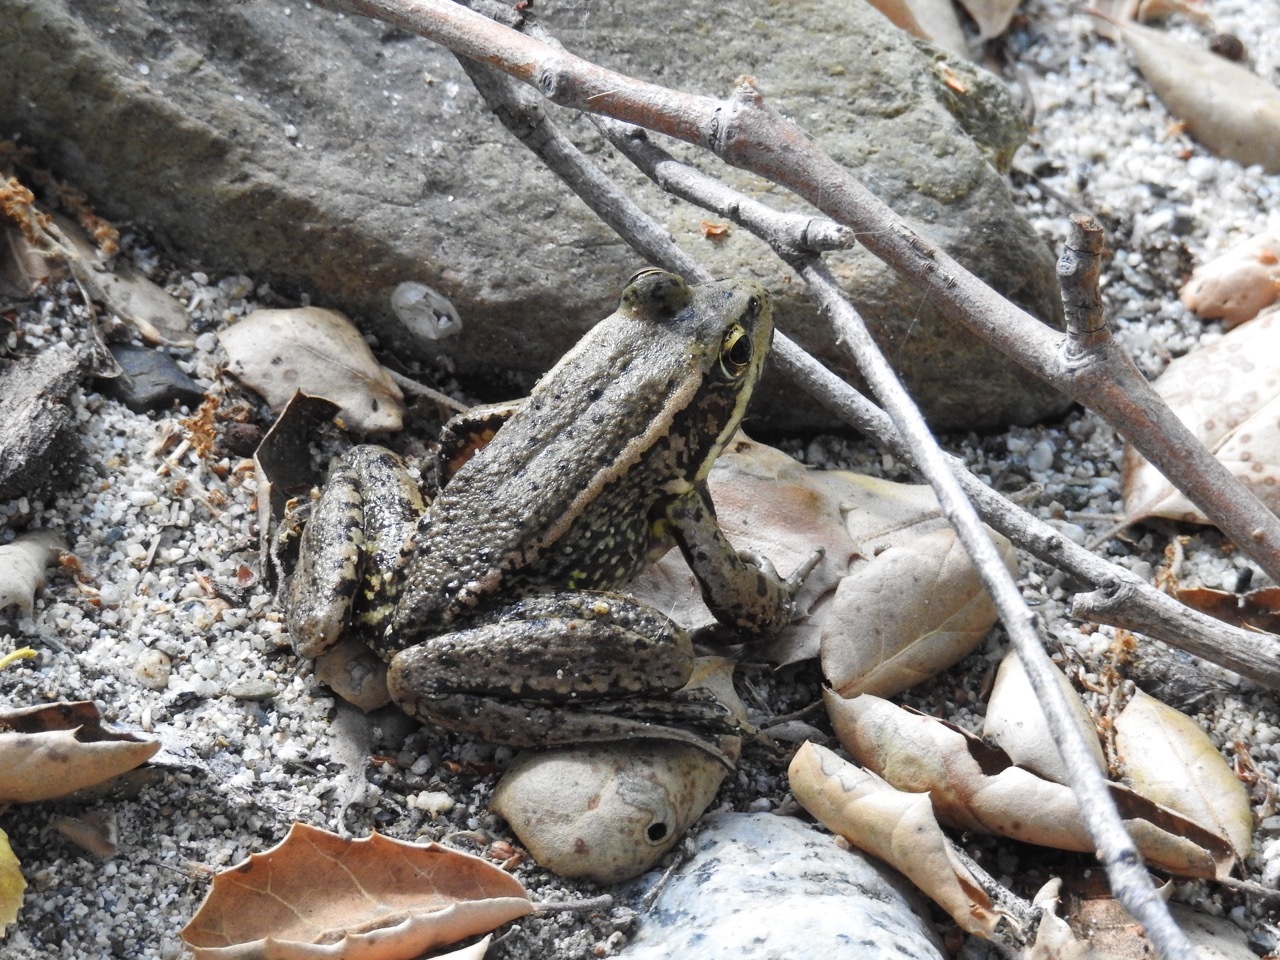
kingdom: Animalia
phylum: Chordata
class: Amphibia
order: Anura
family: Ranidae
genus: Rana
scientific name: Rana draytonii
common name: California red-legged frog
